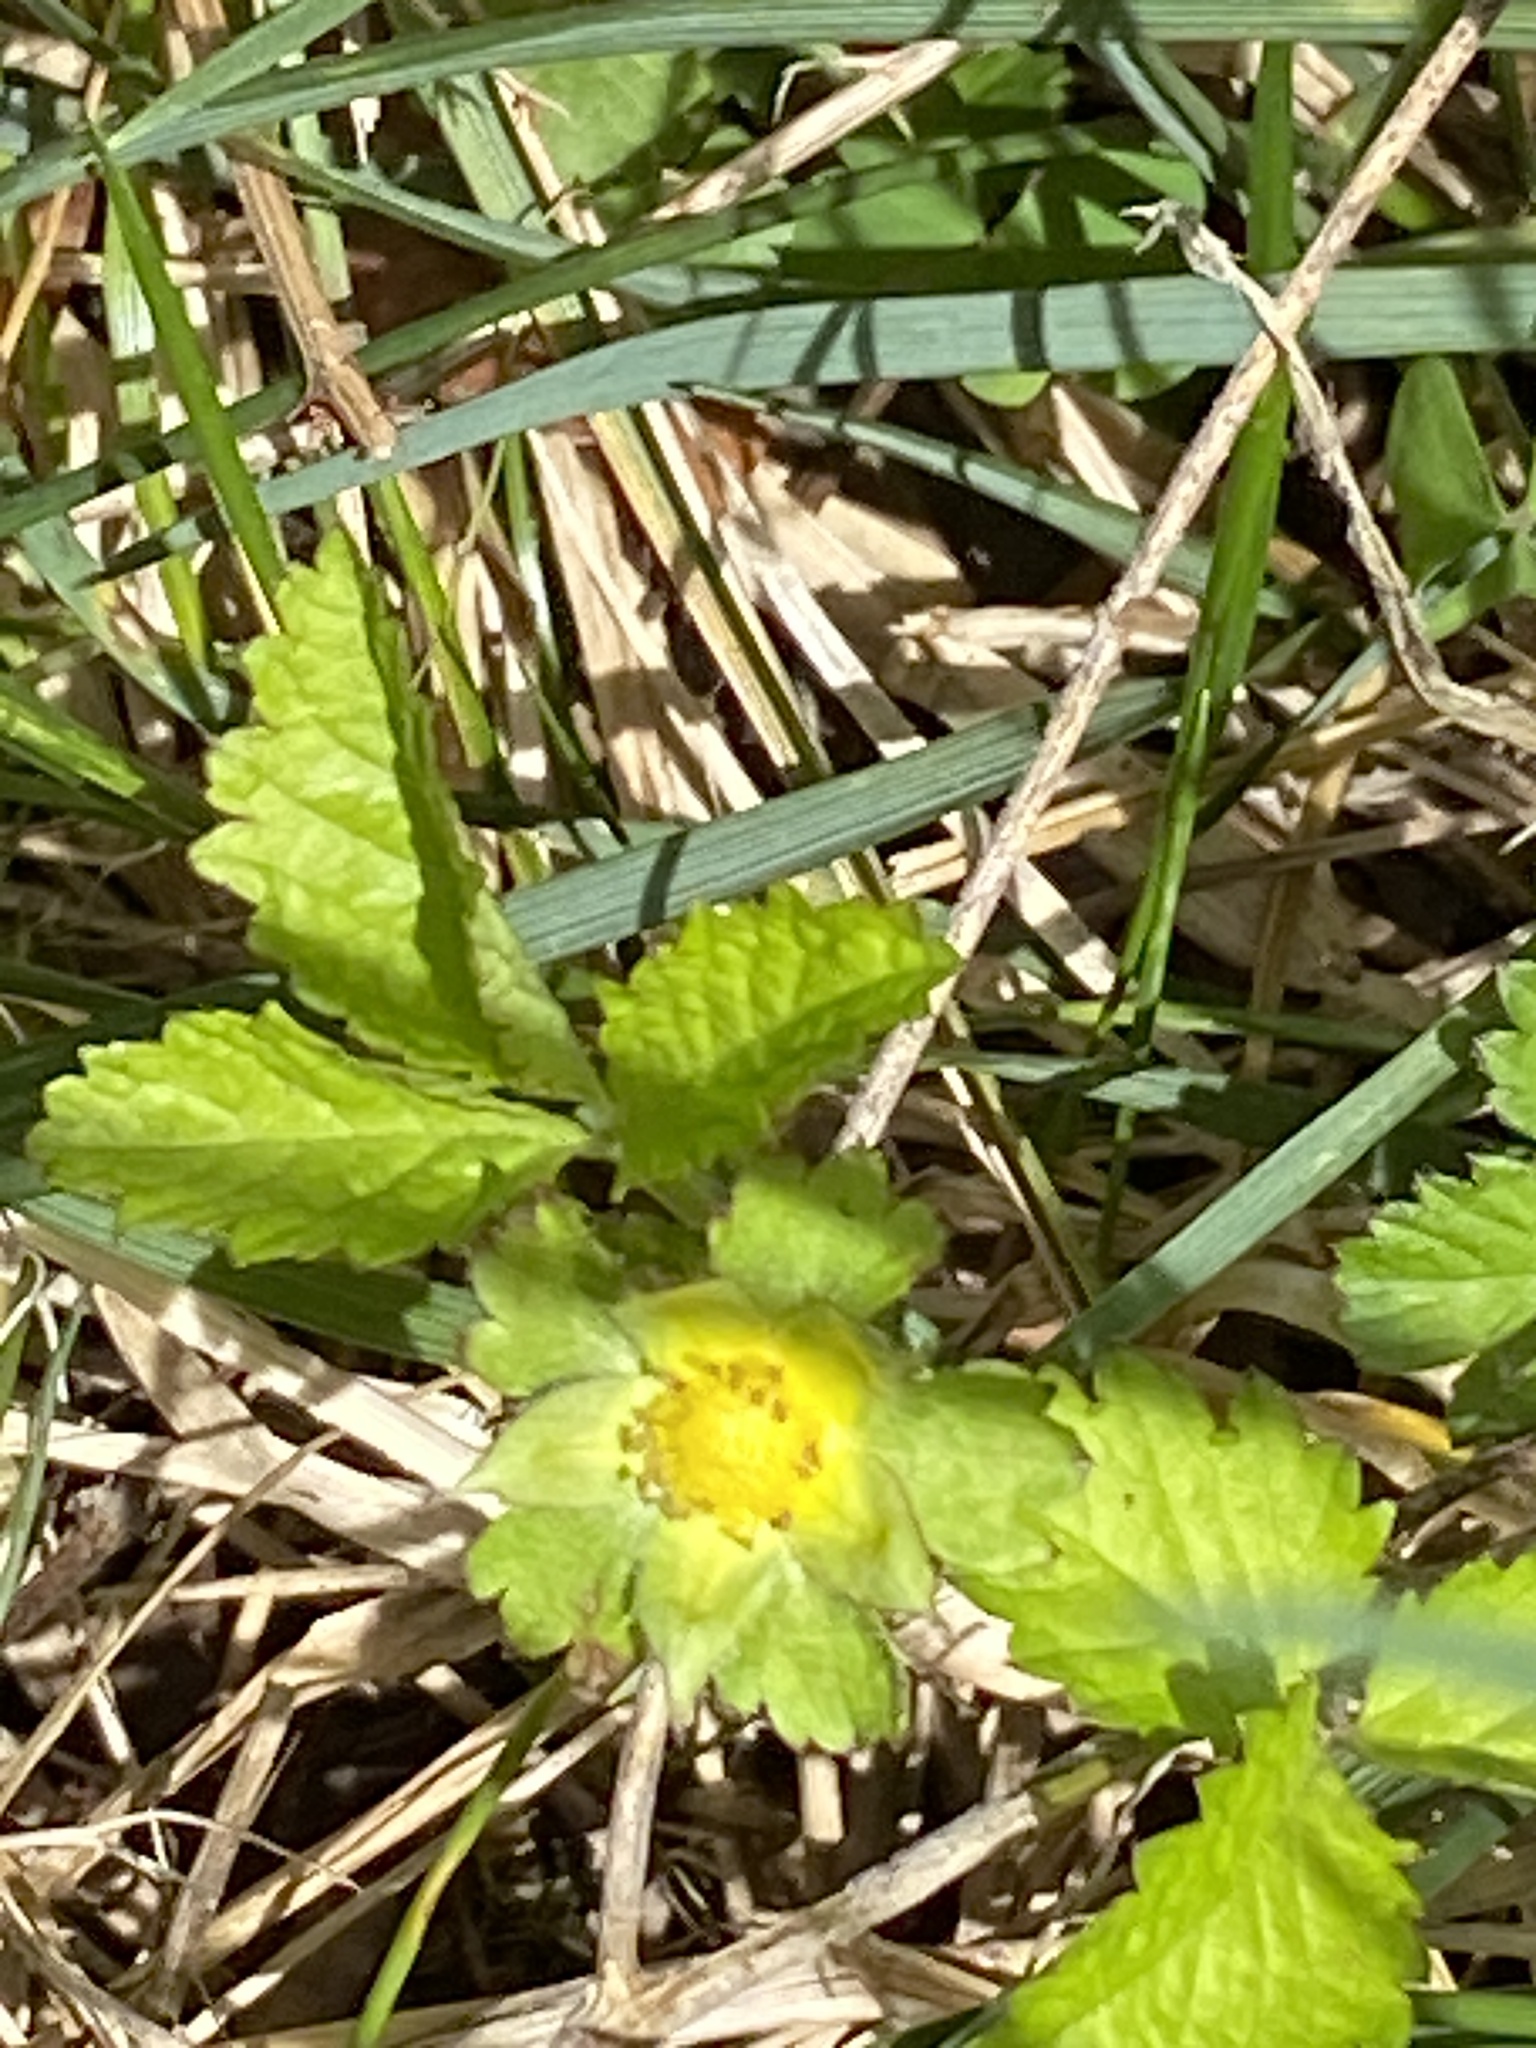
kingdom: Plantae
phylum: Tracheophyta
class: Magnoliopsida
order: Rosales
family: Rosaceae
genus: Potentilla
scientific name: Potentilla indica
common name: Yellow-flowered strawberry
